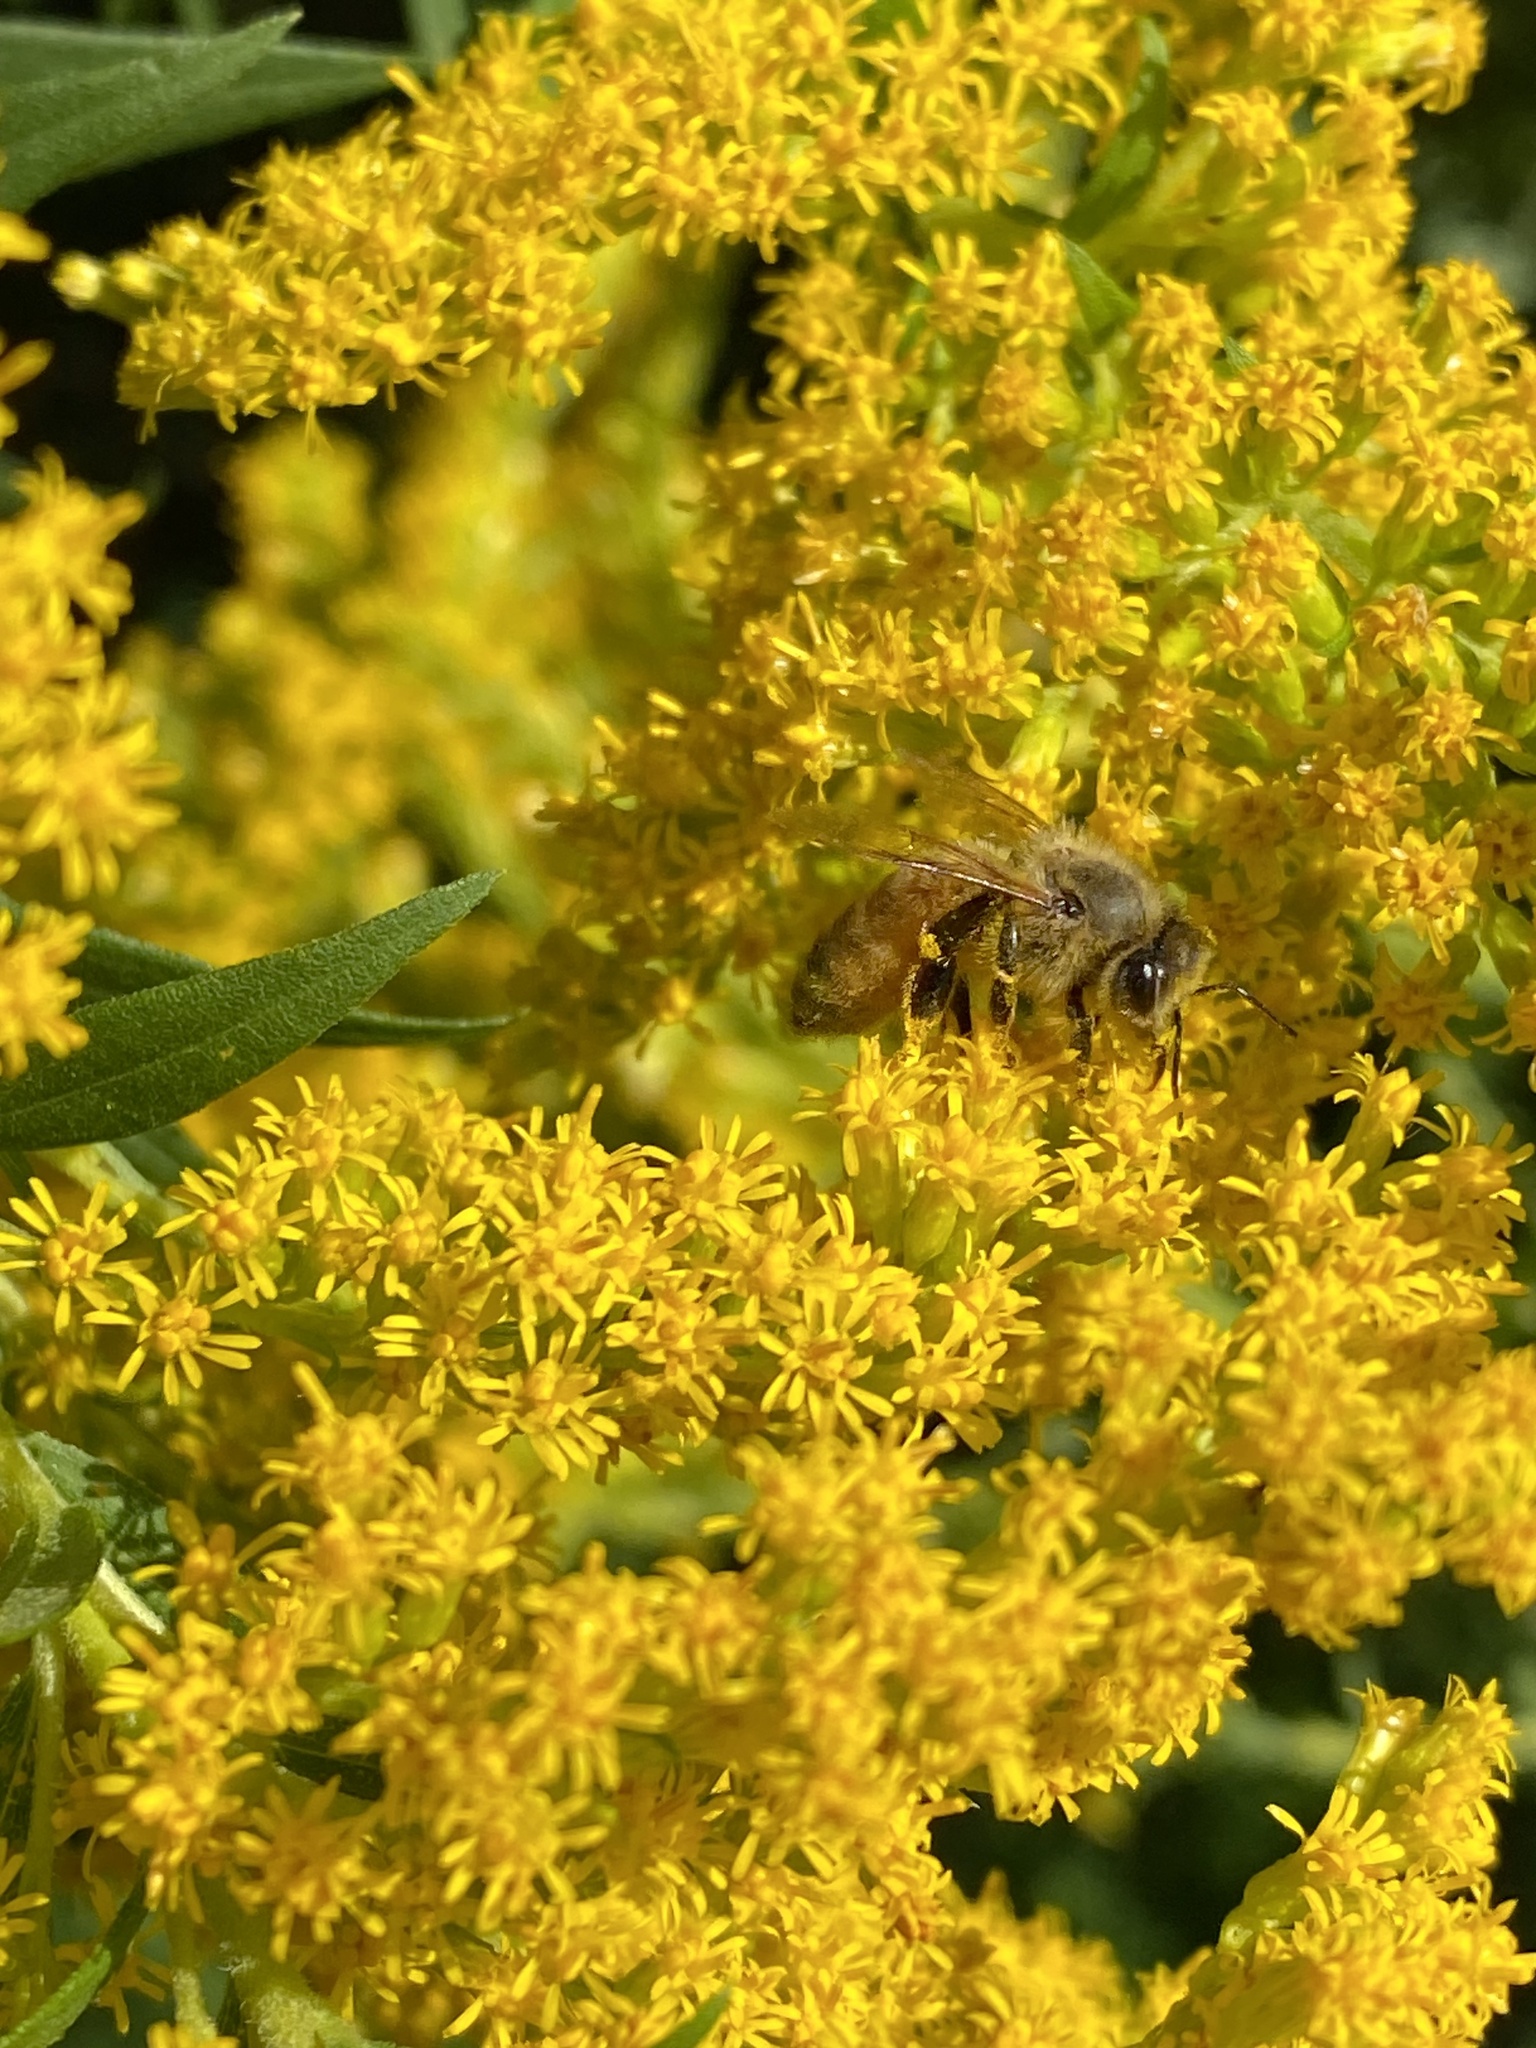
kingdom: Animalia
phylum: Arthropoda
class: Insecta
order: Hymenoptera
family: Apidae
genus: Apis
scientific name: Apis mellifera
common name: Honey bee
